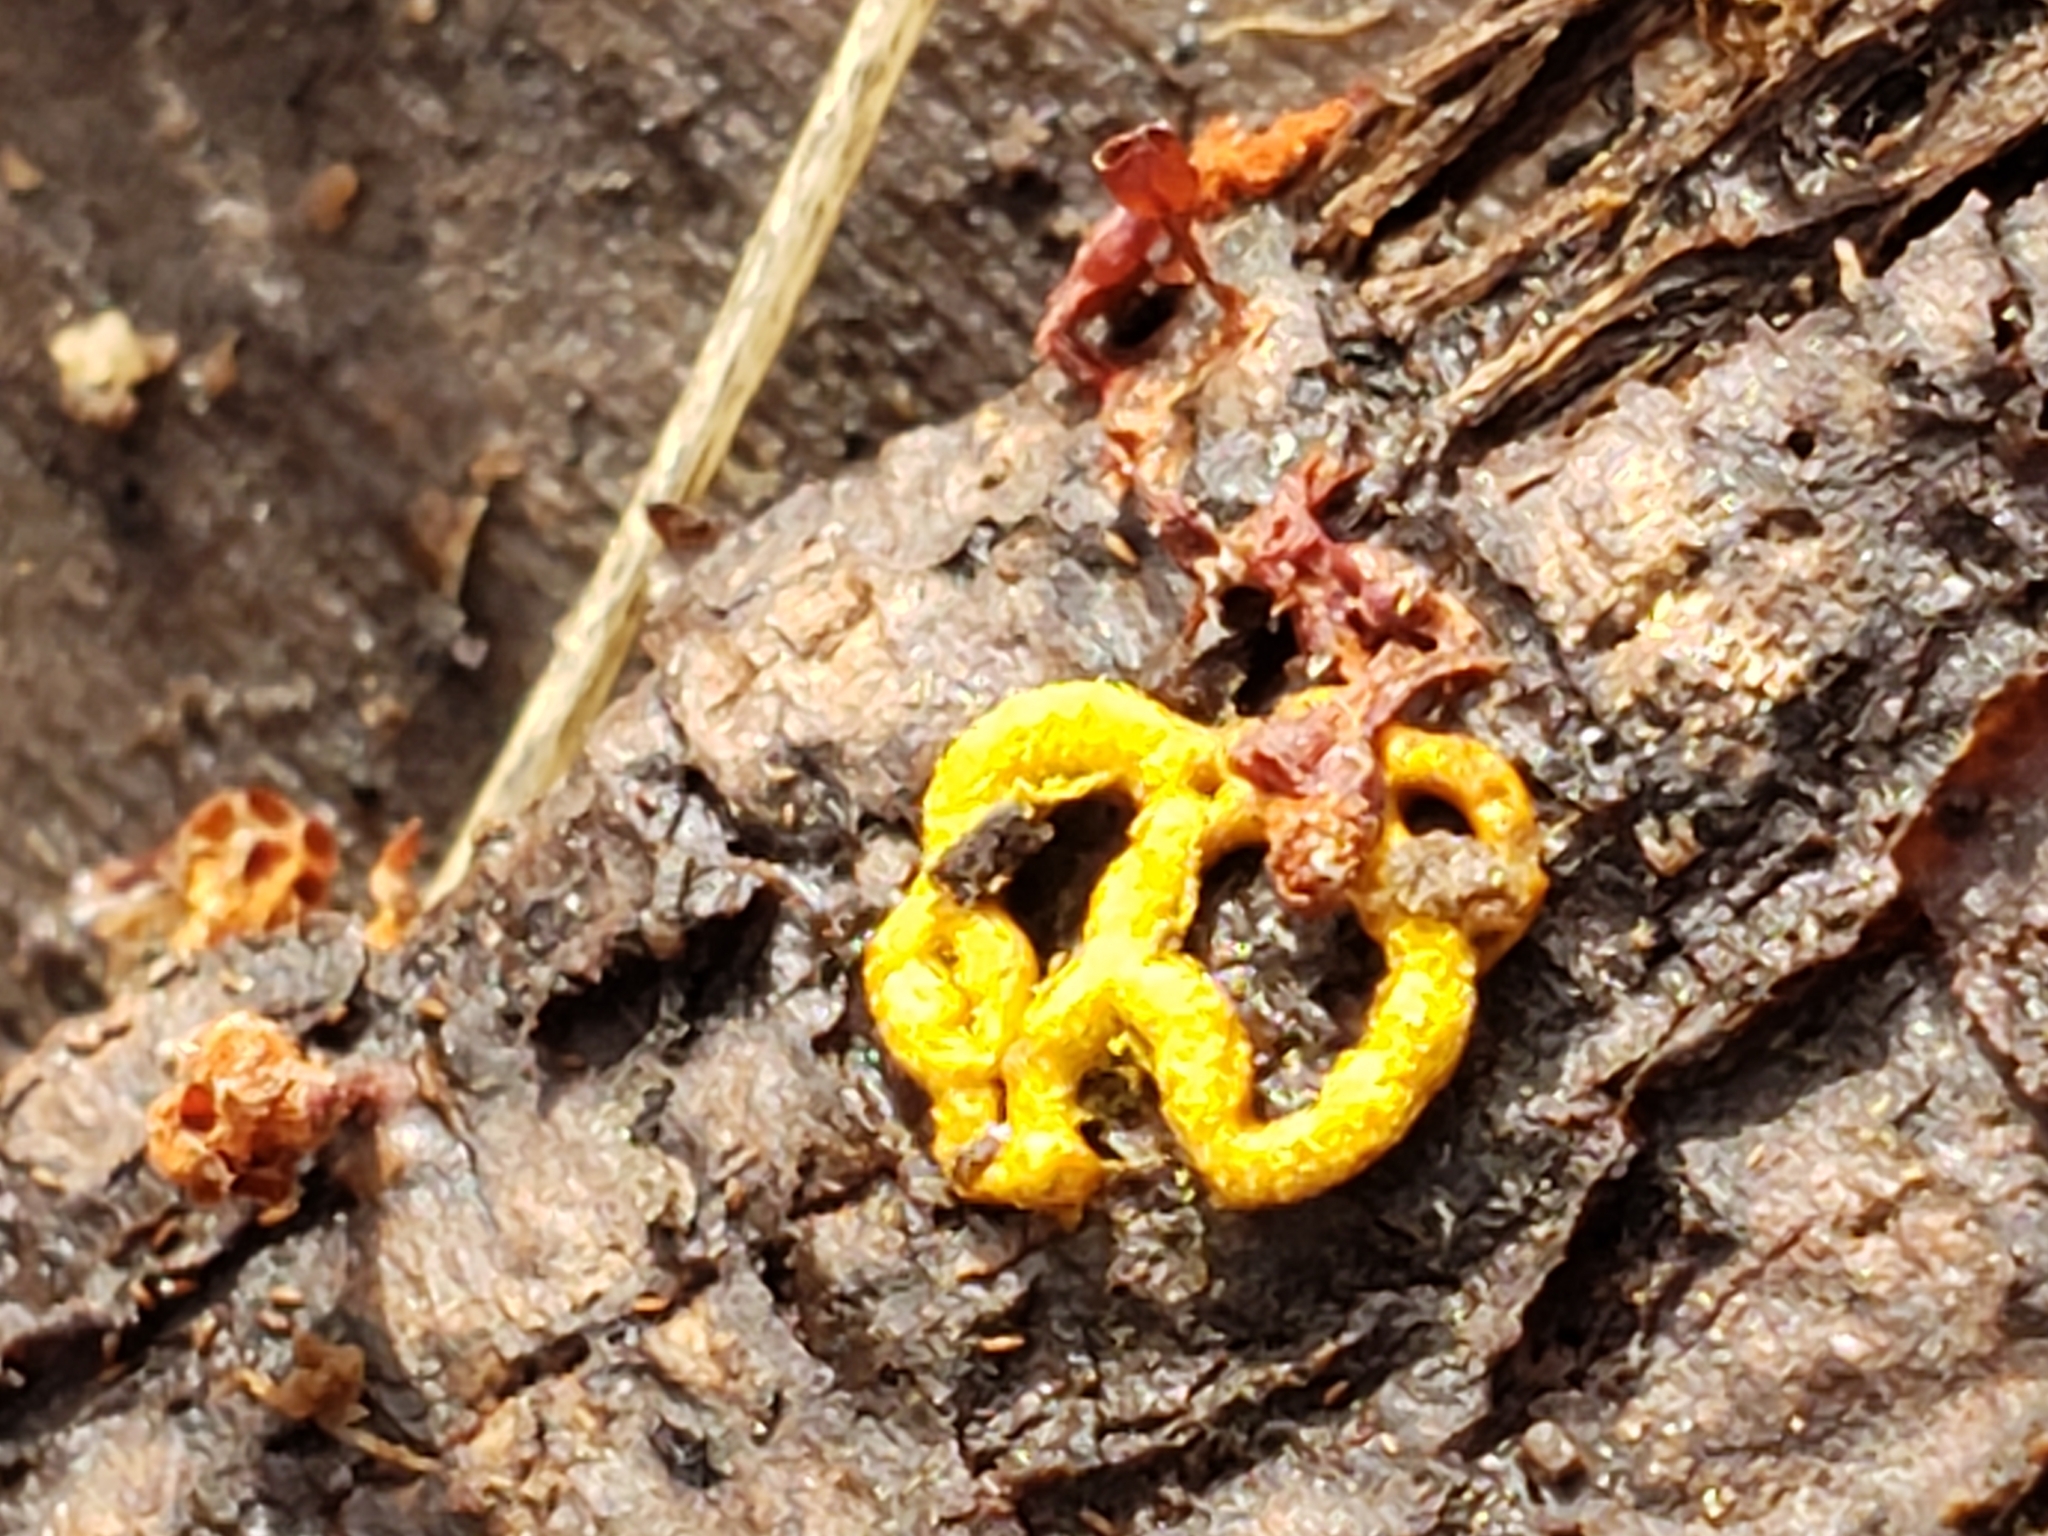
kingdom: Protozoa
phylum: Mycetozoa
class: Myxomycetes
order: Trichiales
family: Arcyriaceae
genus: Hemitrichia
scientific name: Hemitrichia serpula
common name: Pretzel slime mold
